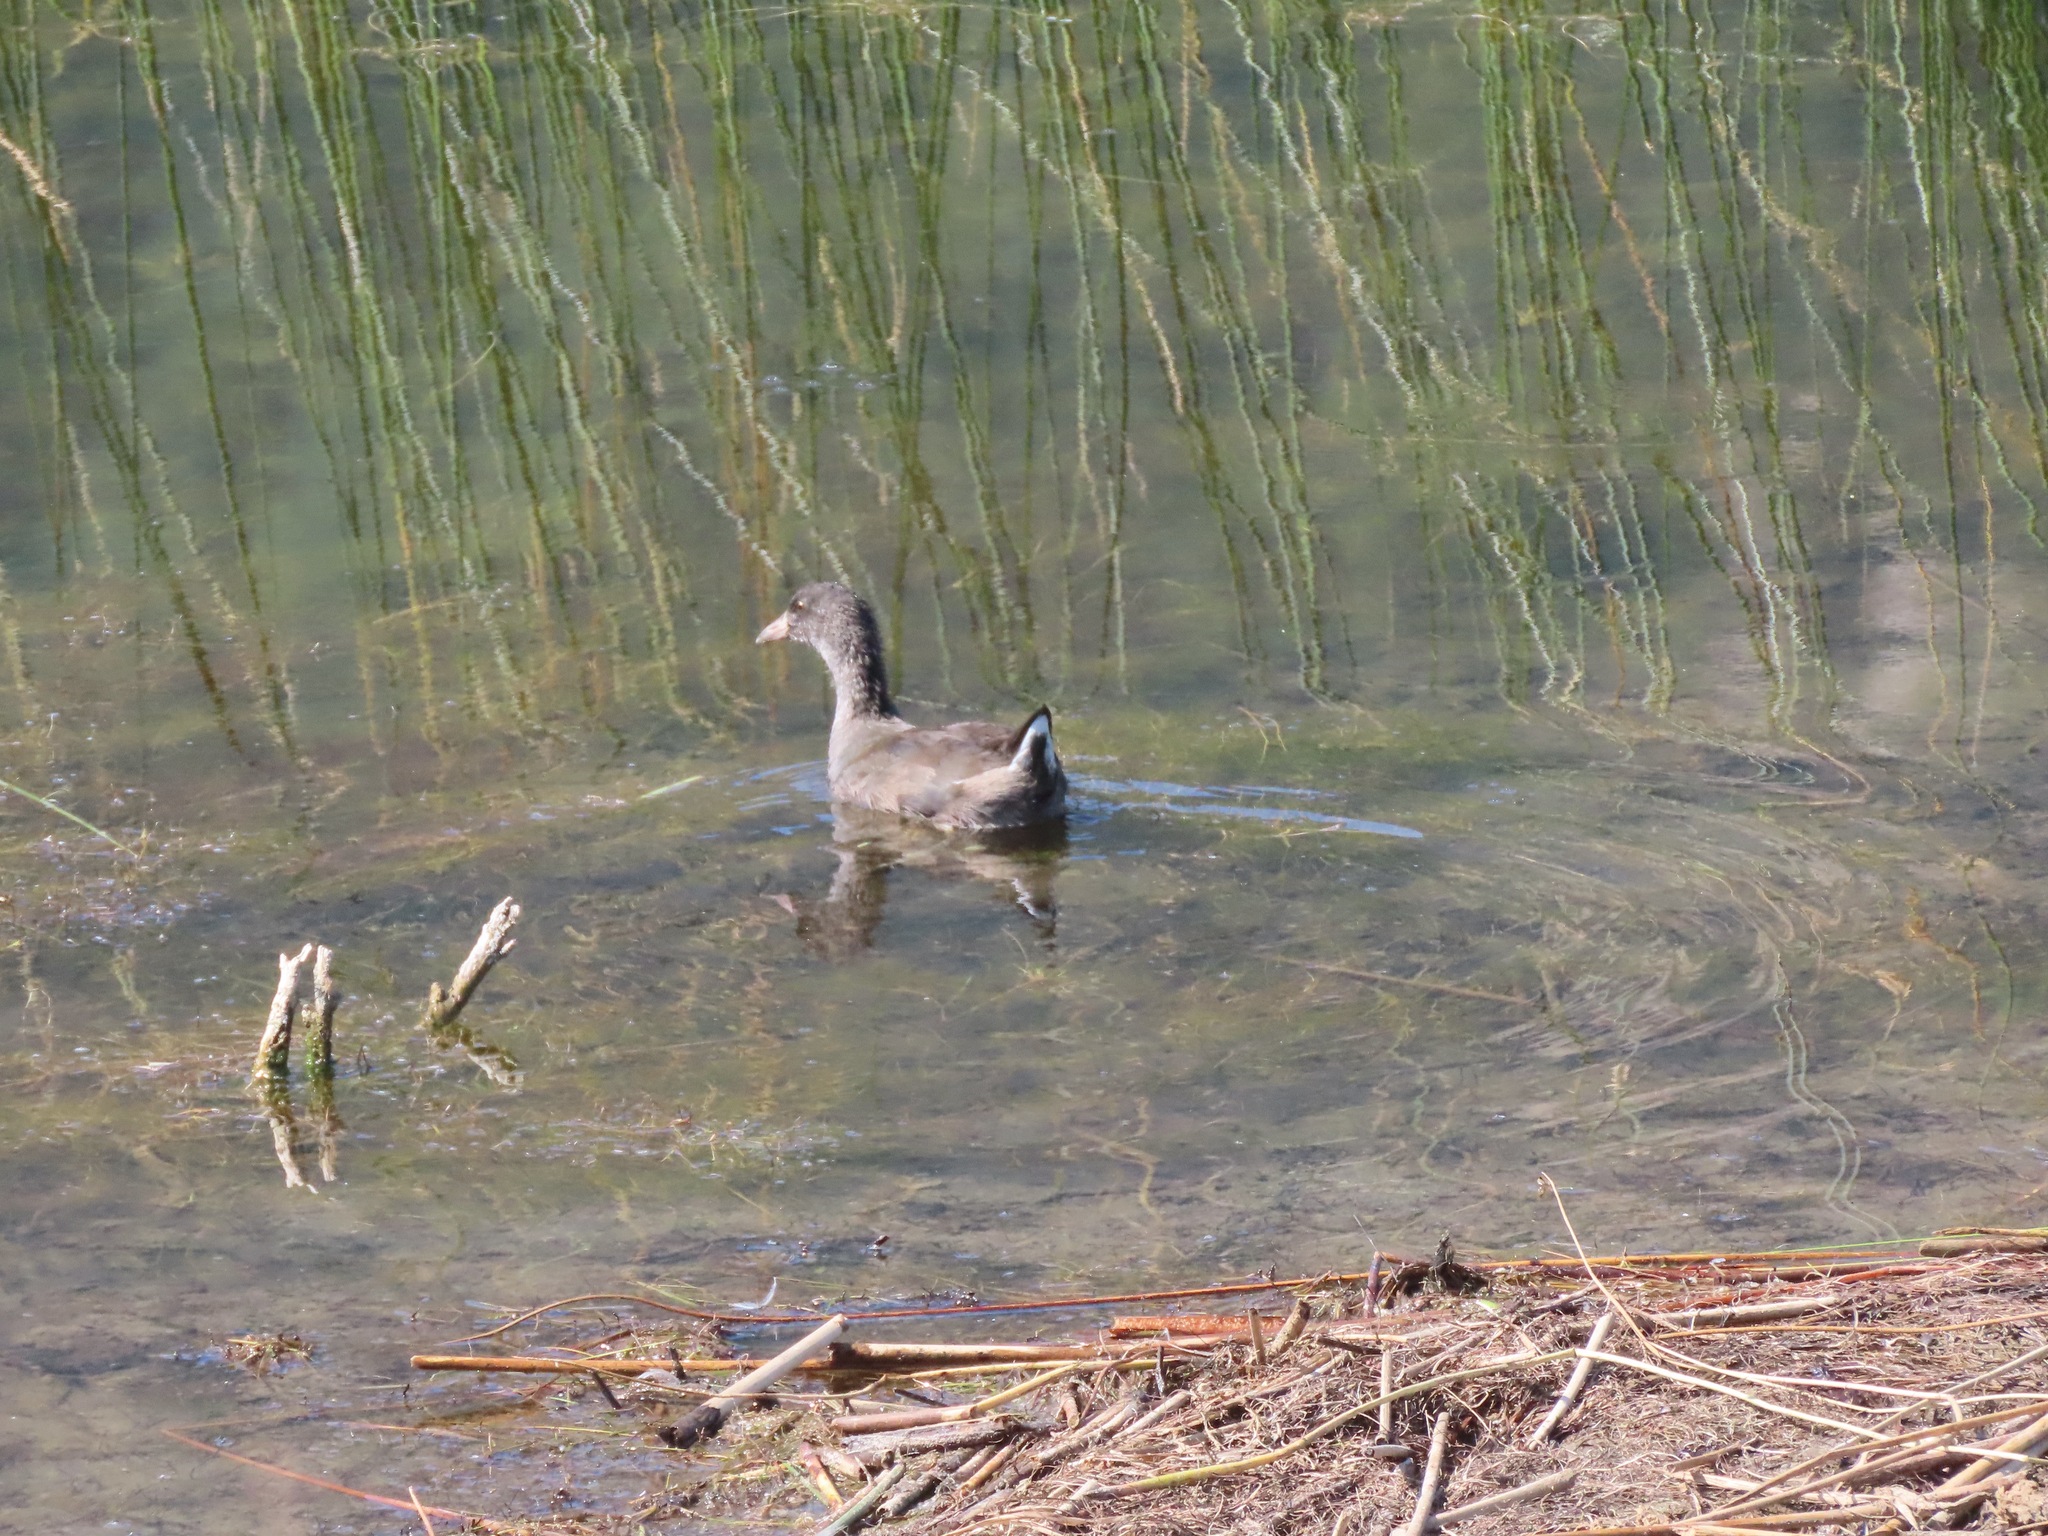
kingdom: Animalia
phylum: Chordata
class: Aves
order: Gruiformes
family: Rallidae
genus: Fulica
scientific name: Fulica americana
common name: American coot
